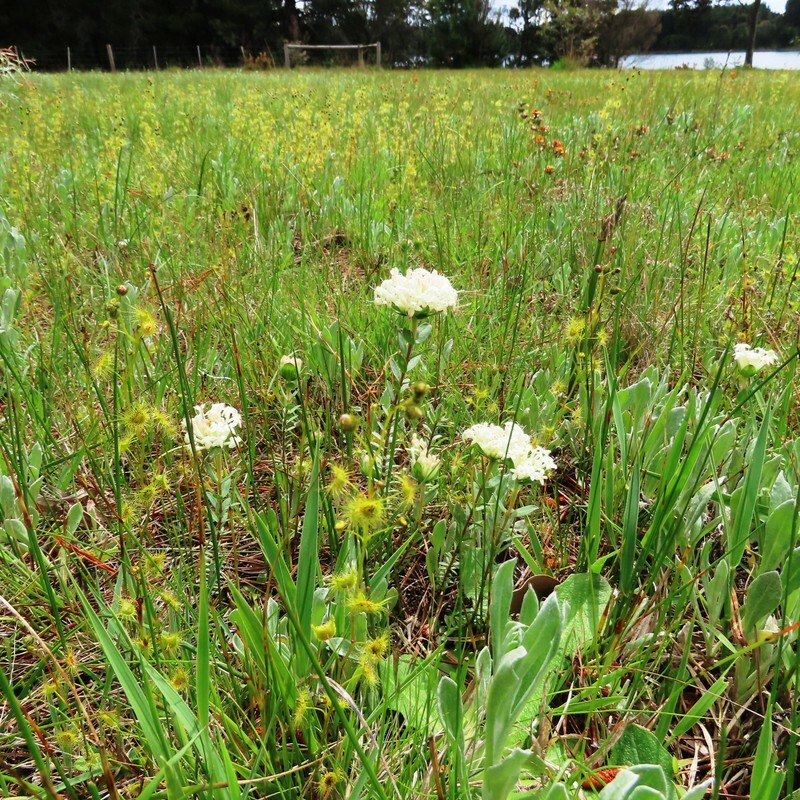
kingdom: Plantae
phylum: Tracheophyta
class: Magnoliopsida
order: Malvales
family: Thymelaeaceae
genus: Pimelea
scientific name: Pimelea humilis
